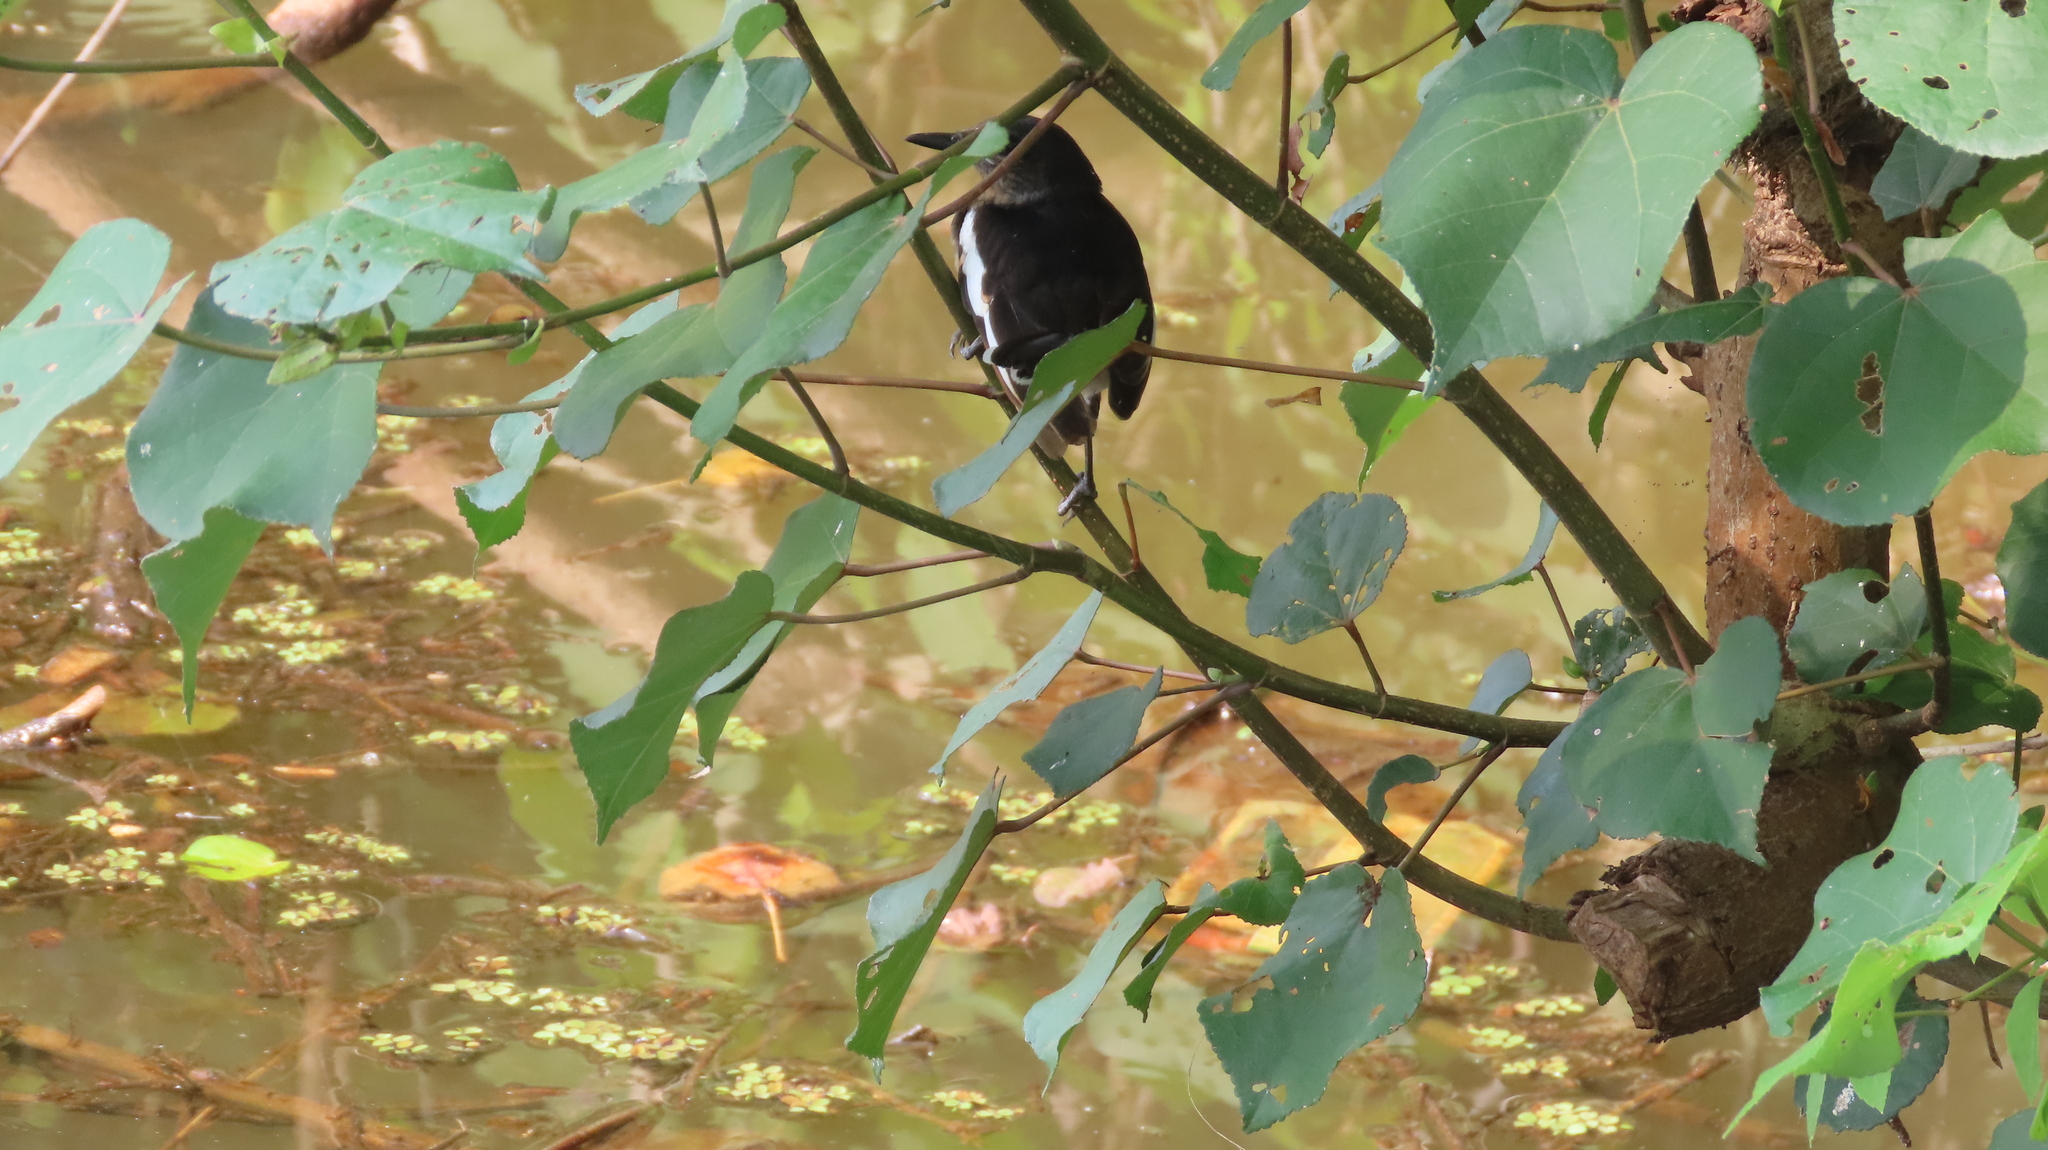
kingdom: Animalia
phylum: Chordata
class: Aves
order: Passeriformes
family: Muscicapidae
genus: Copsychus
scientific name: Copsychus saularis
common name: Oriental magpie-robin
